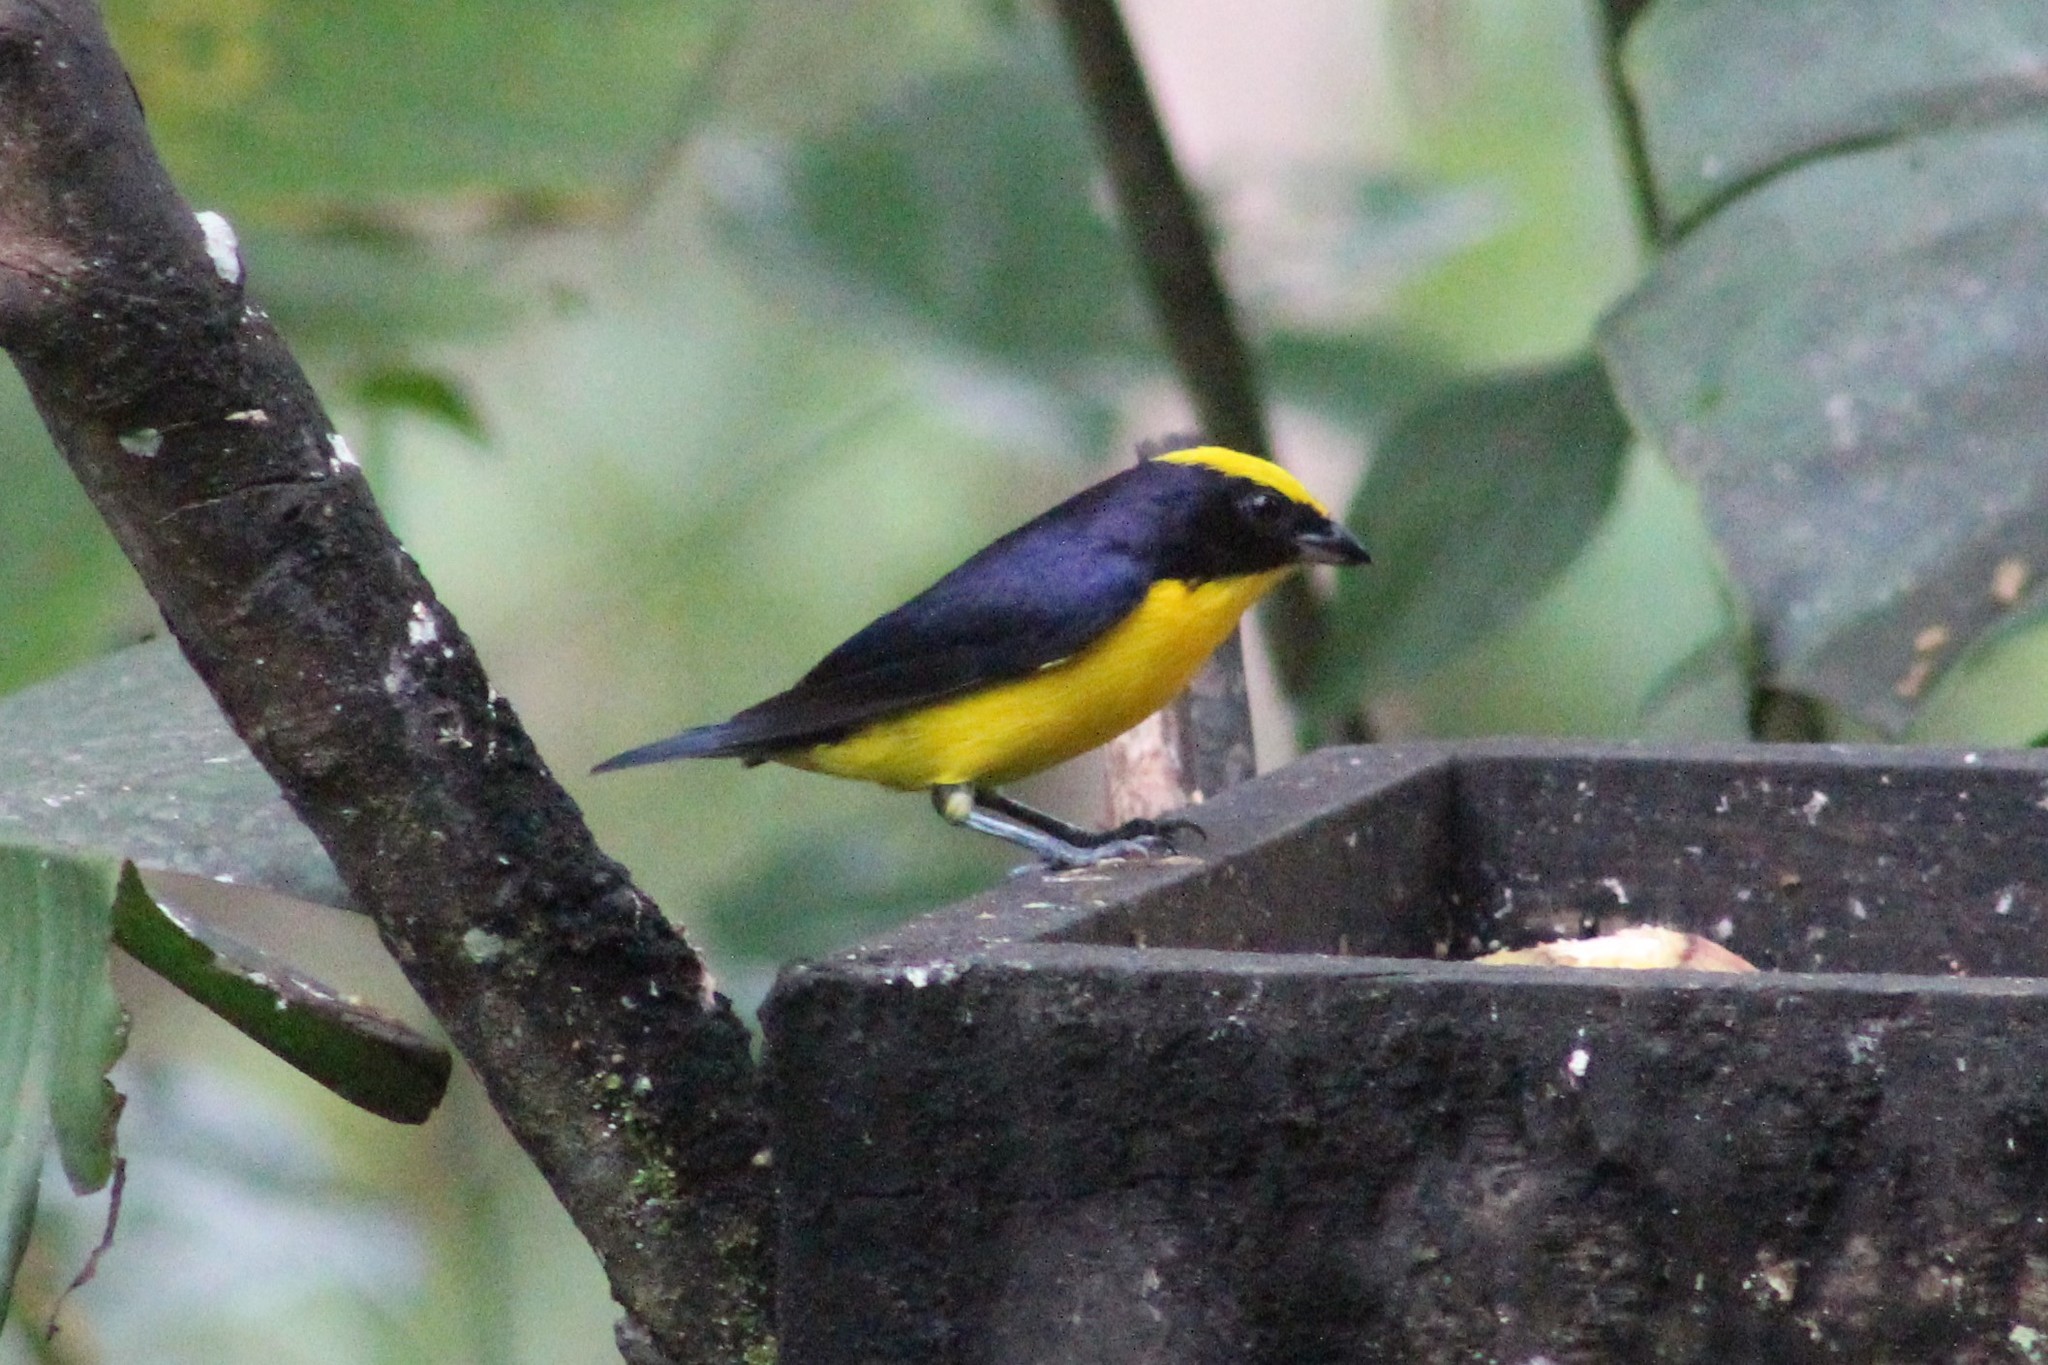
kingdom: Animalia
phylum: Chordata
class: Aves
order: Passeriformes
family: Fringillidae
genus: Euphonia
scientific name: Euphonia laniirostris
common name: Thick-billed euphonia
